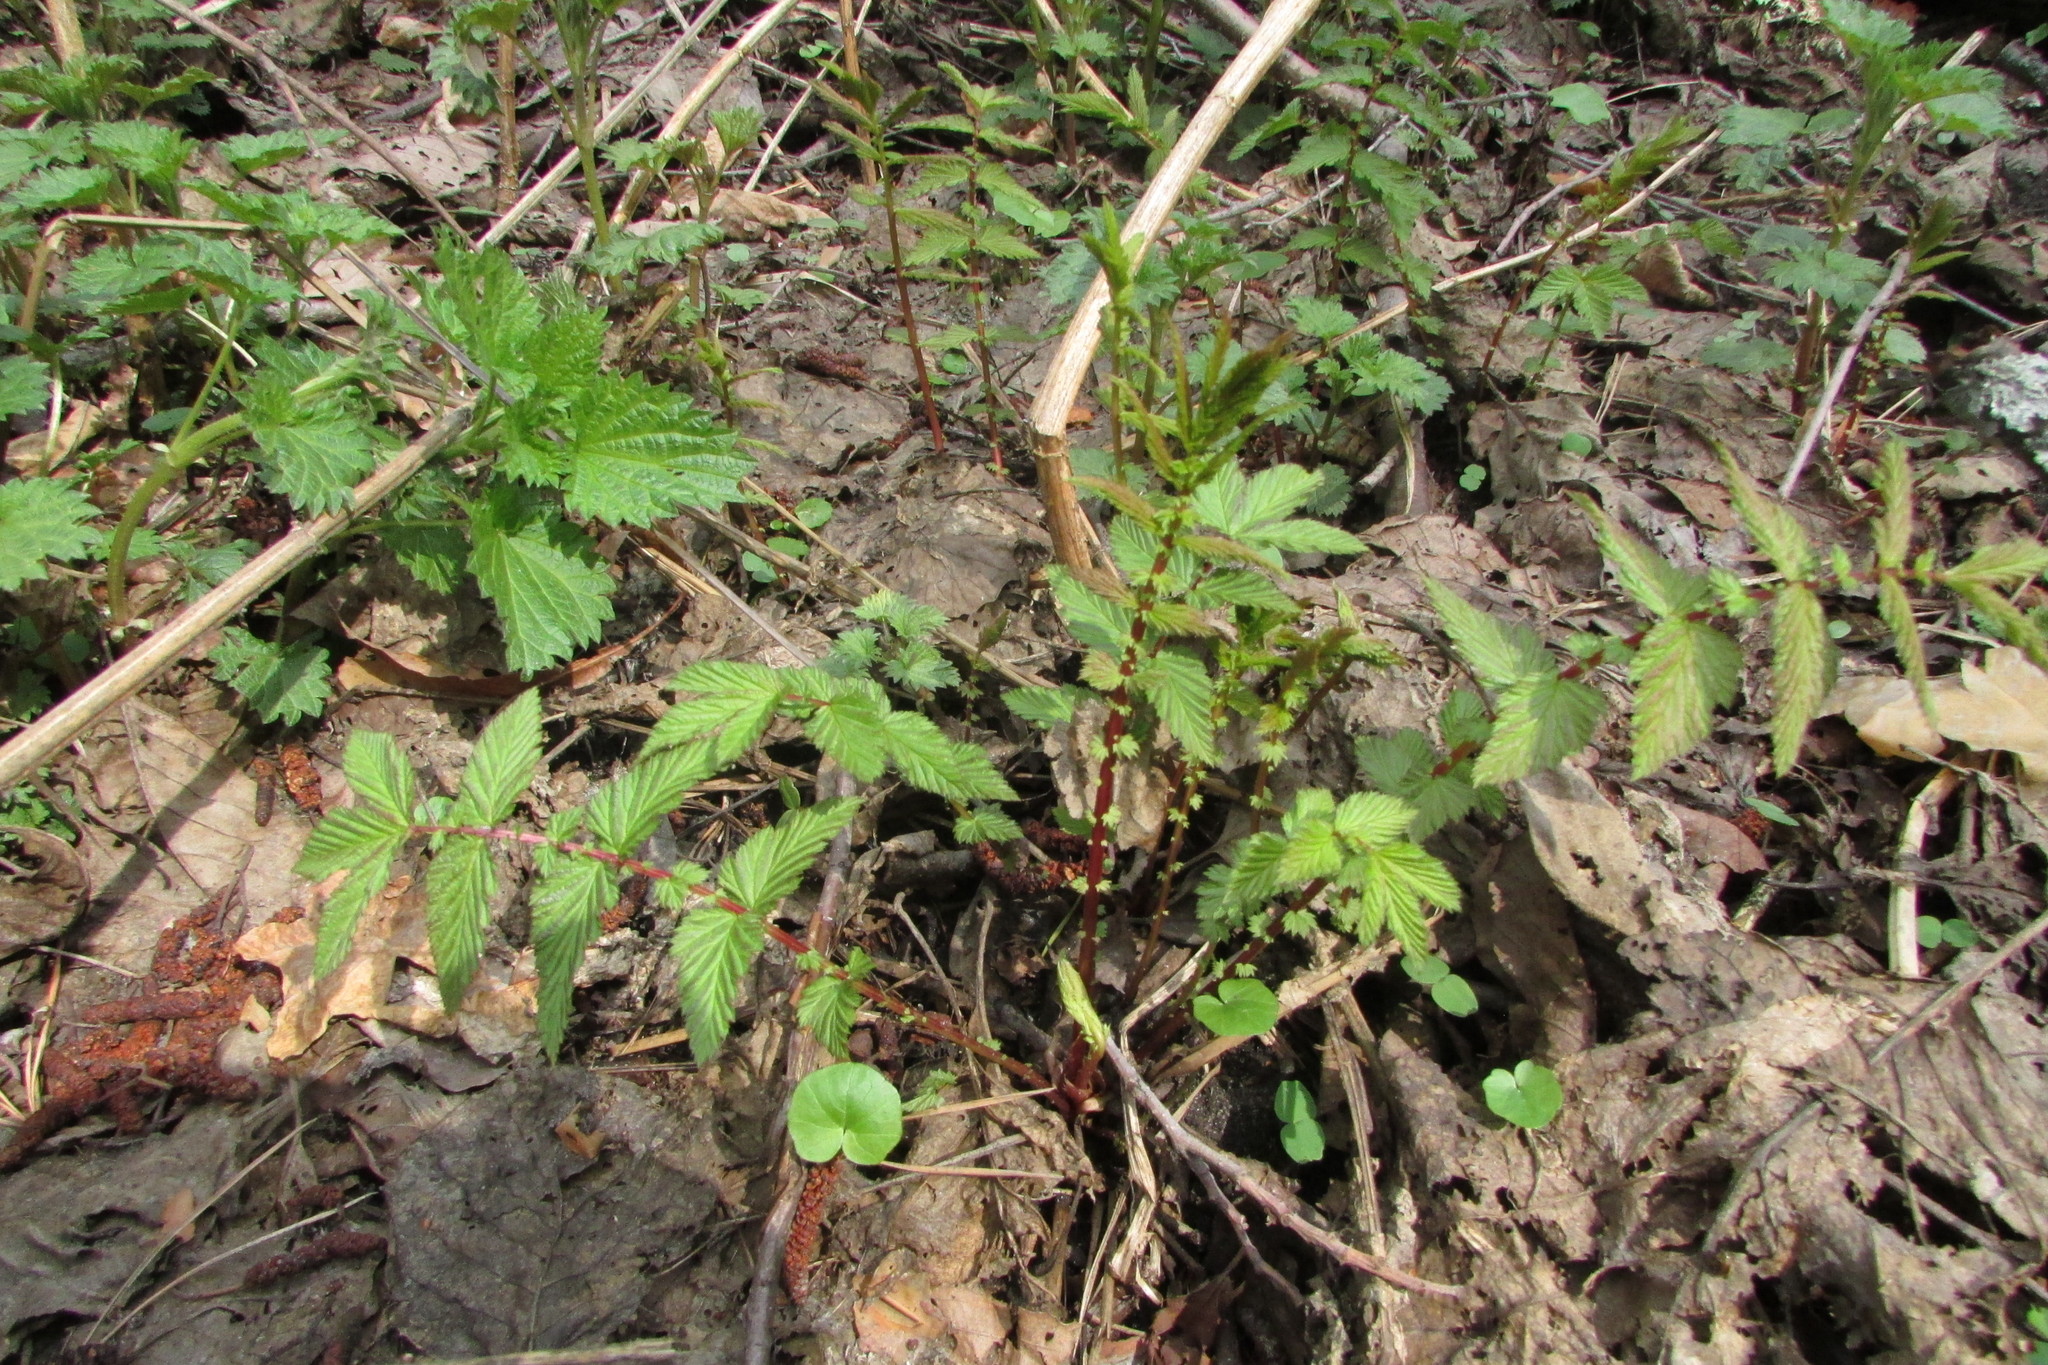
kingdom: Plantae
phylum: Tracheophyta
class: Magnoliopsida
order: Rosales
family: Rosaceae
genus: Filipendula
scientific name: Filipendula ulmaria
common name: Meadowsweet
